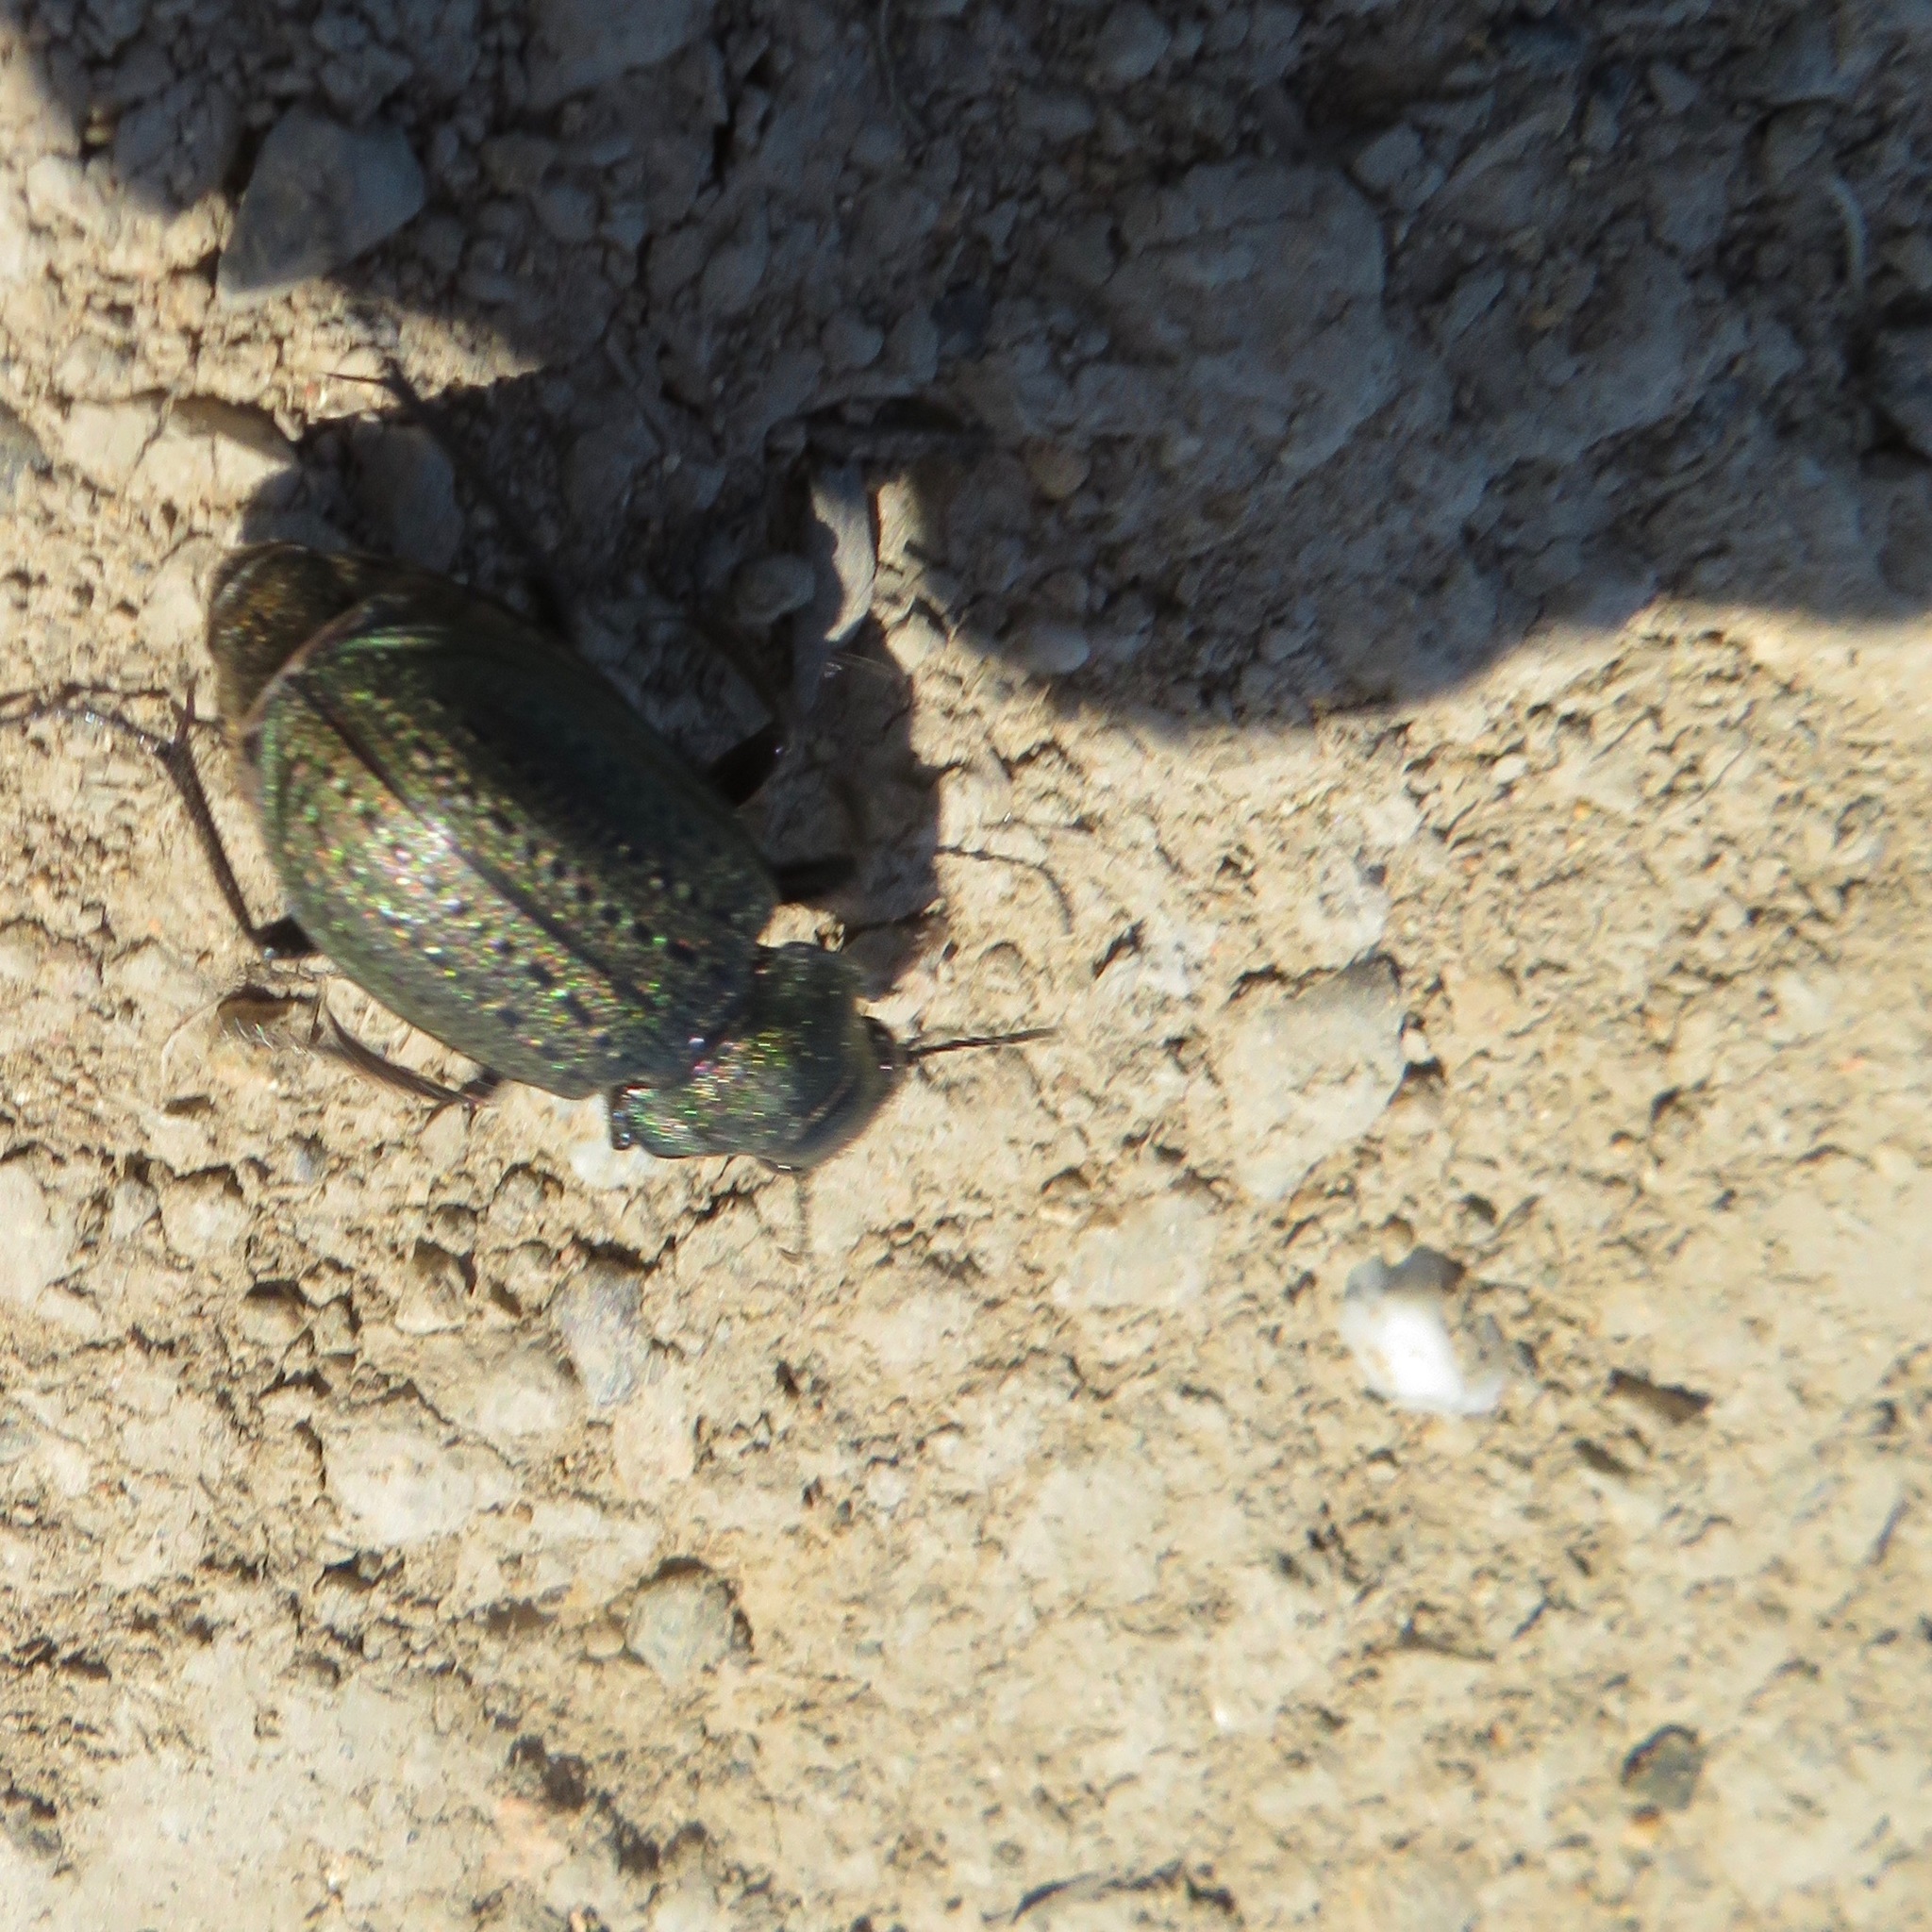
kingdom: Animalia
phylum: Arthropoda
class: Insecta
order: Coleoptera
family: Carabidae
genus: Calosoma
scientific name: Calosoma cancellatum
